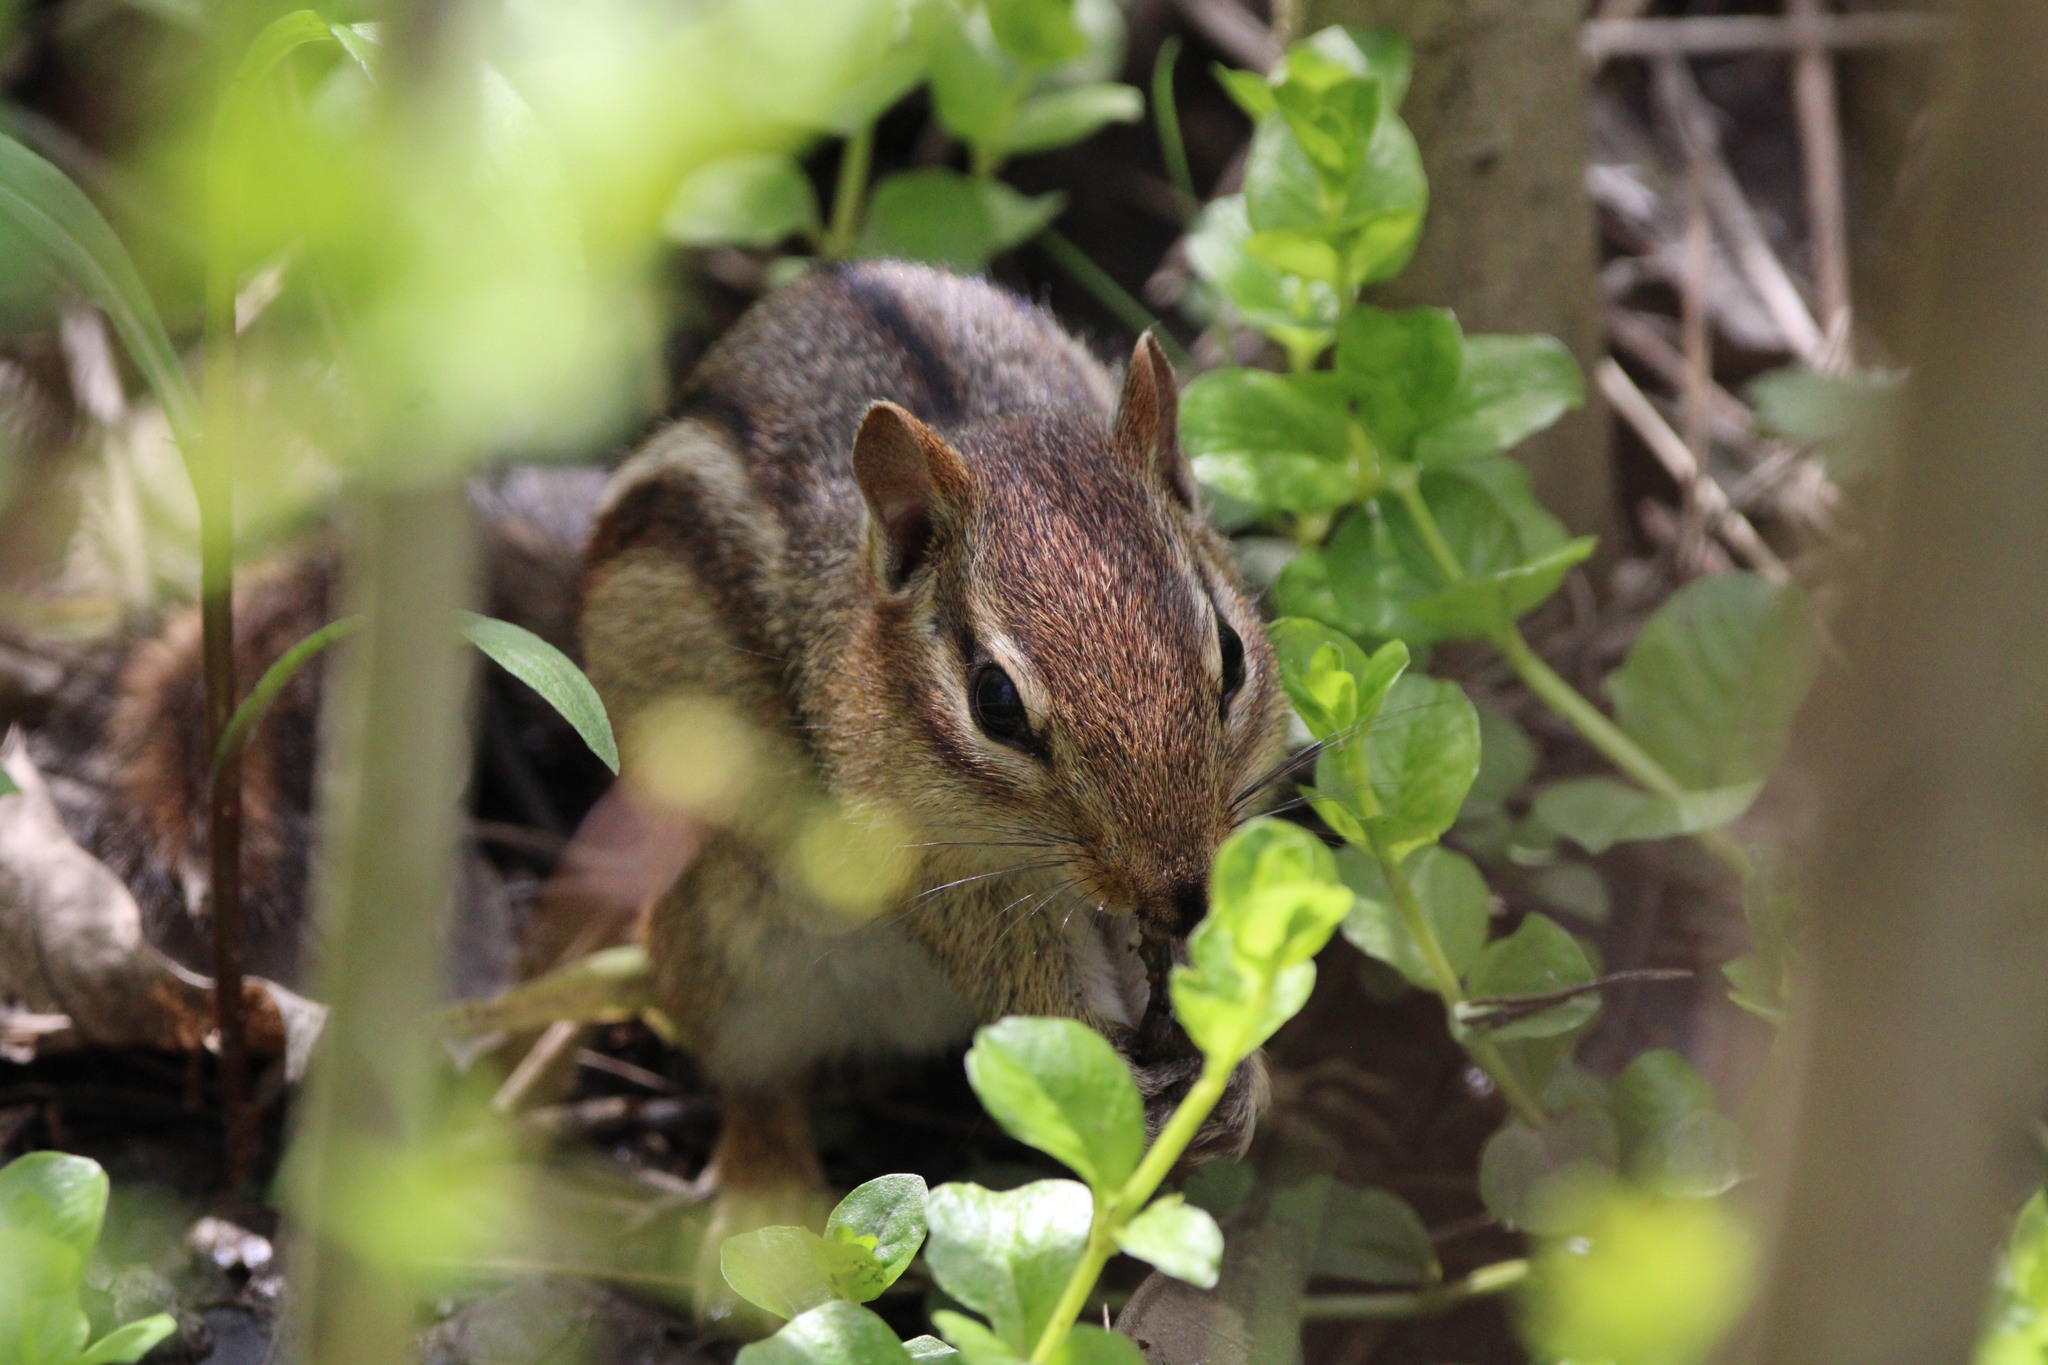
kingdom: Animalia
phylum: Chordata
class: Mammalia
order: Rodentia
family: Sciuridae
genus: Tamias
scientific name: Tamias striatus
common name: Eastern chipmunk
